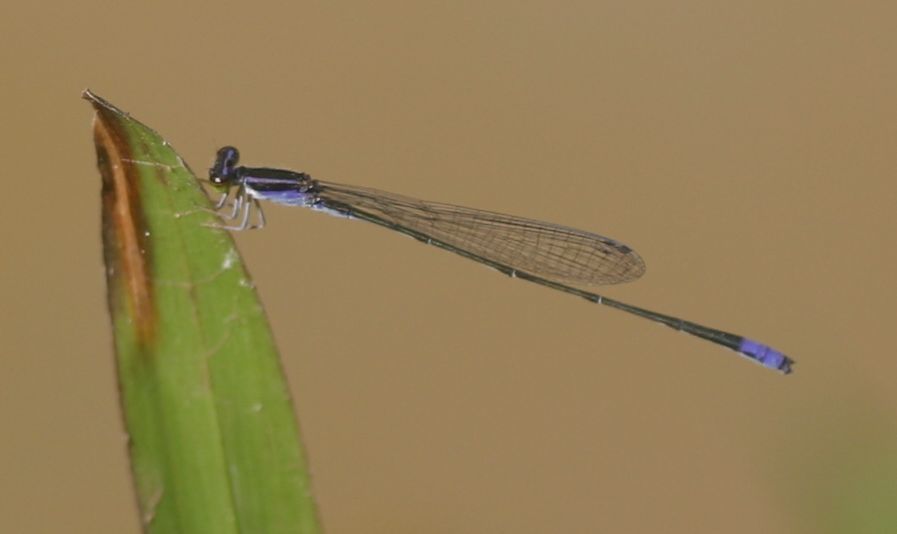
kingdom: Animalia
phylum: Arthropoda
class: Insecta
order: Odonata
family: Coenagrionidae
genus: Aciagrion
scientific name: Aciagrion approximans
